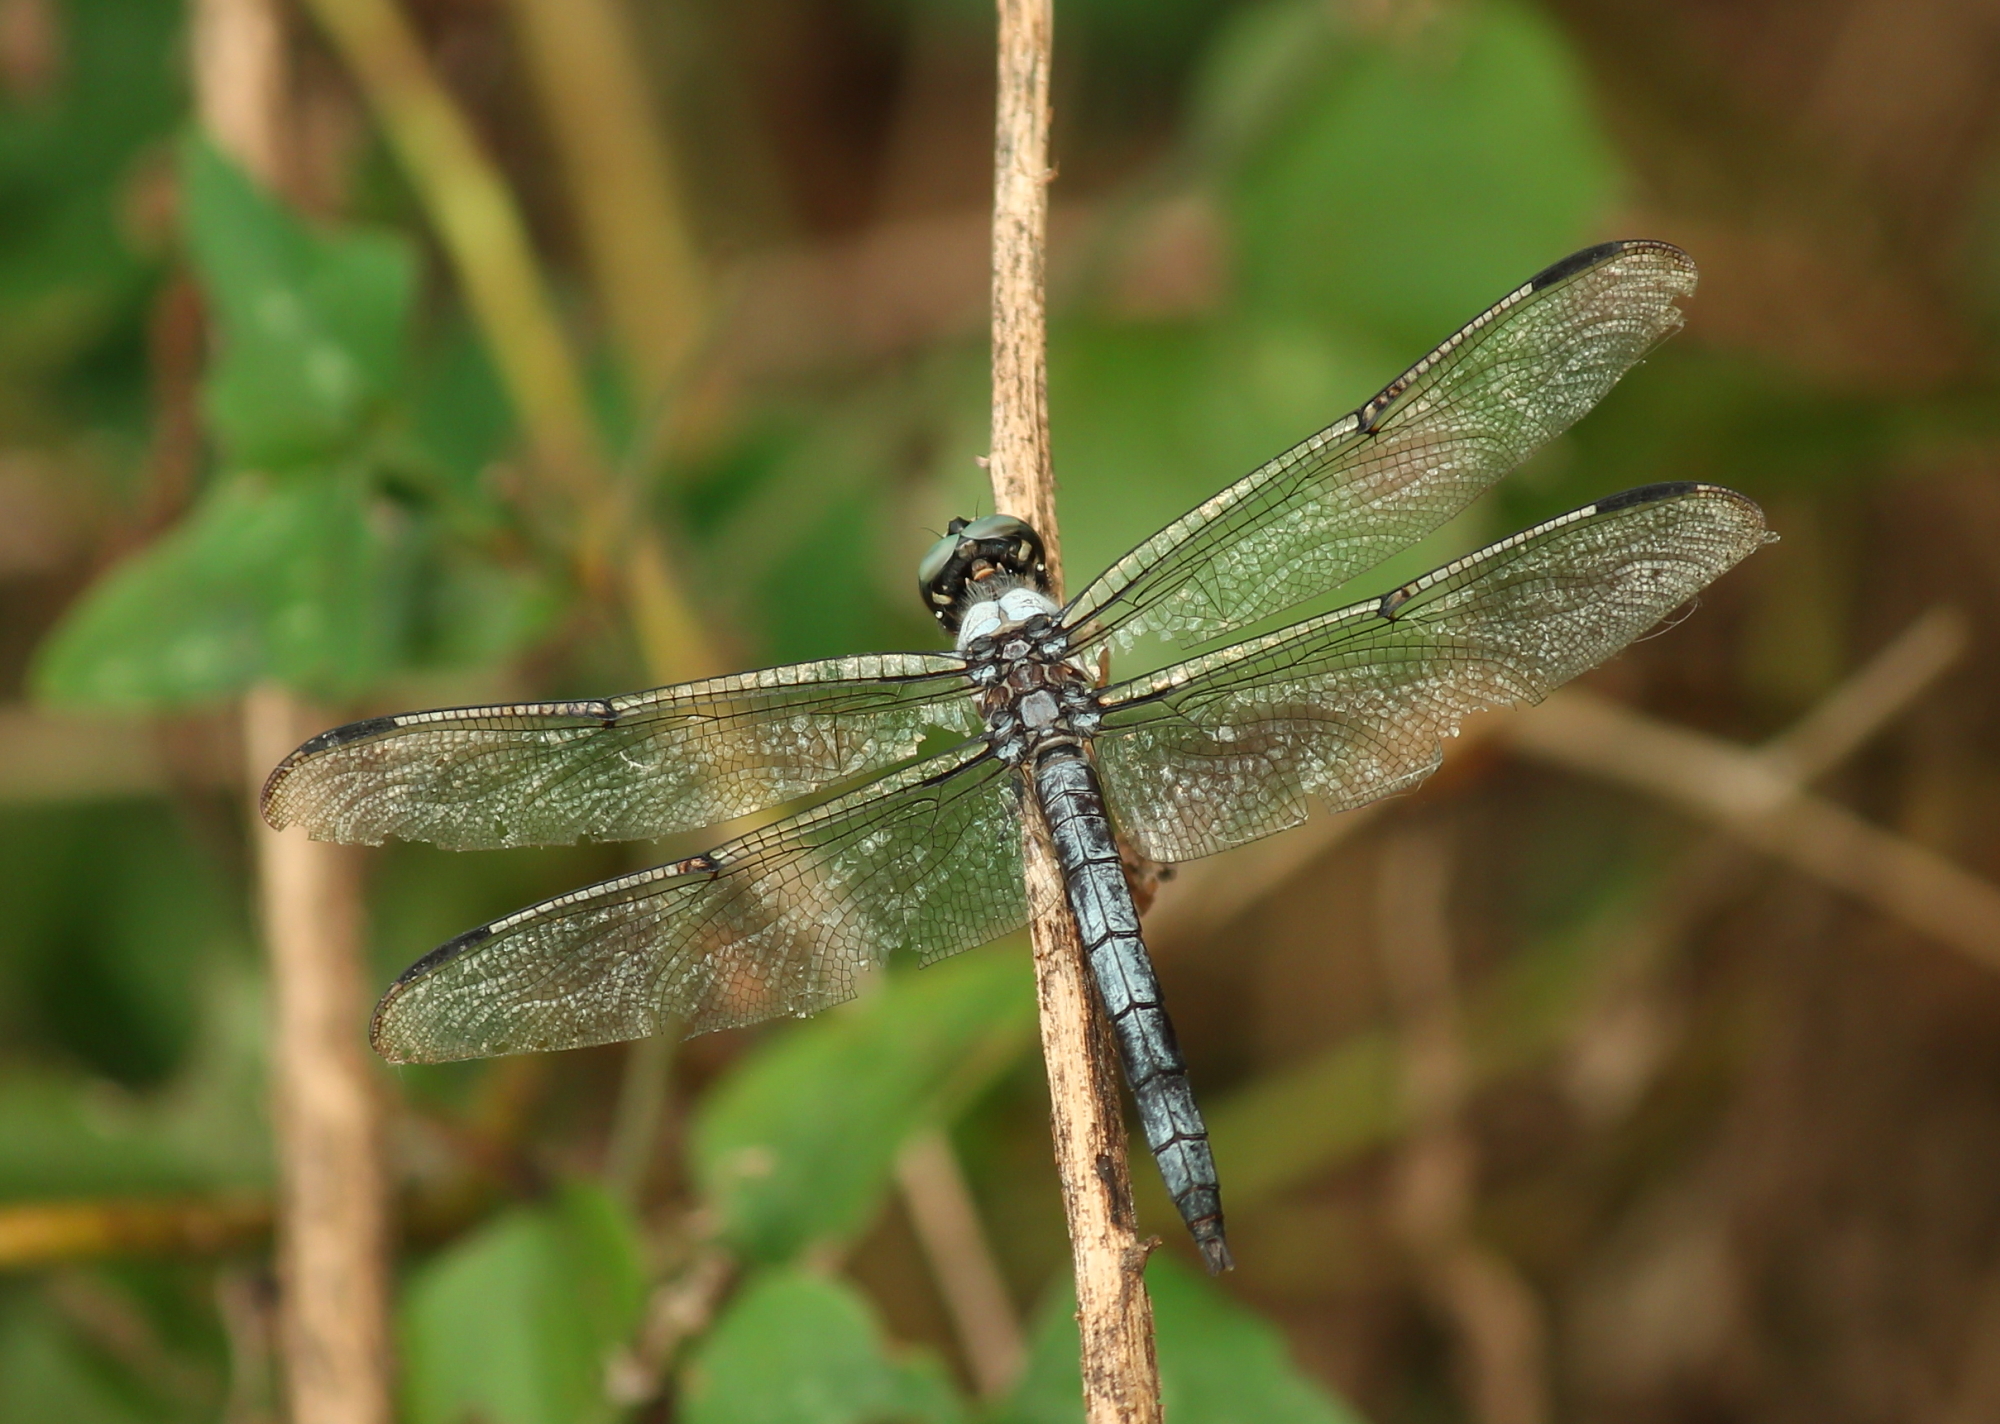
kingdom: Animalia
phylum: Arthropoda
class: Insecta
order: Odonata
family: Libellulidae
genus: Libellula
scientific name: Libellula vibrans
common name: Great blue skimmer
